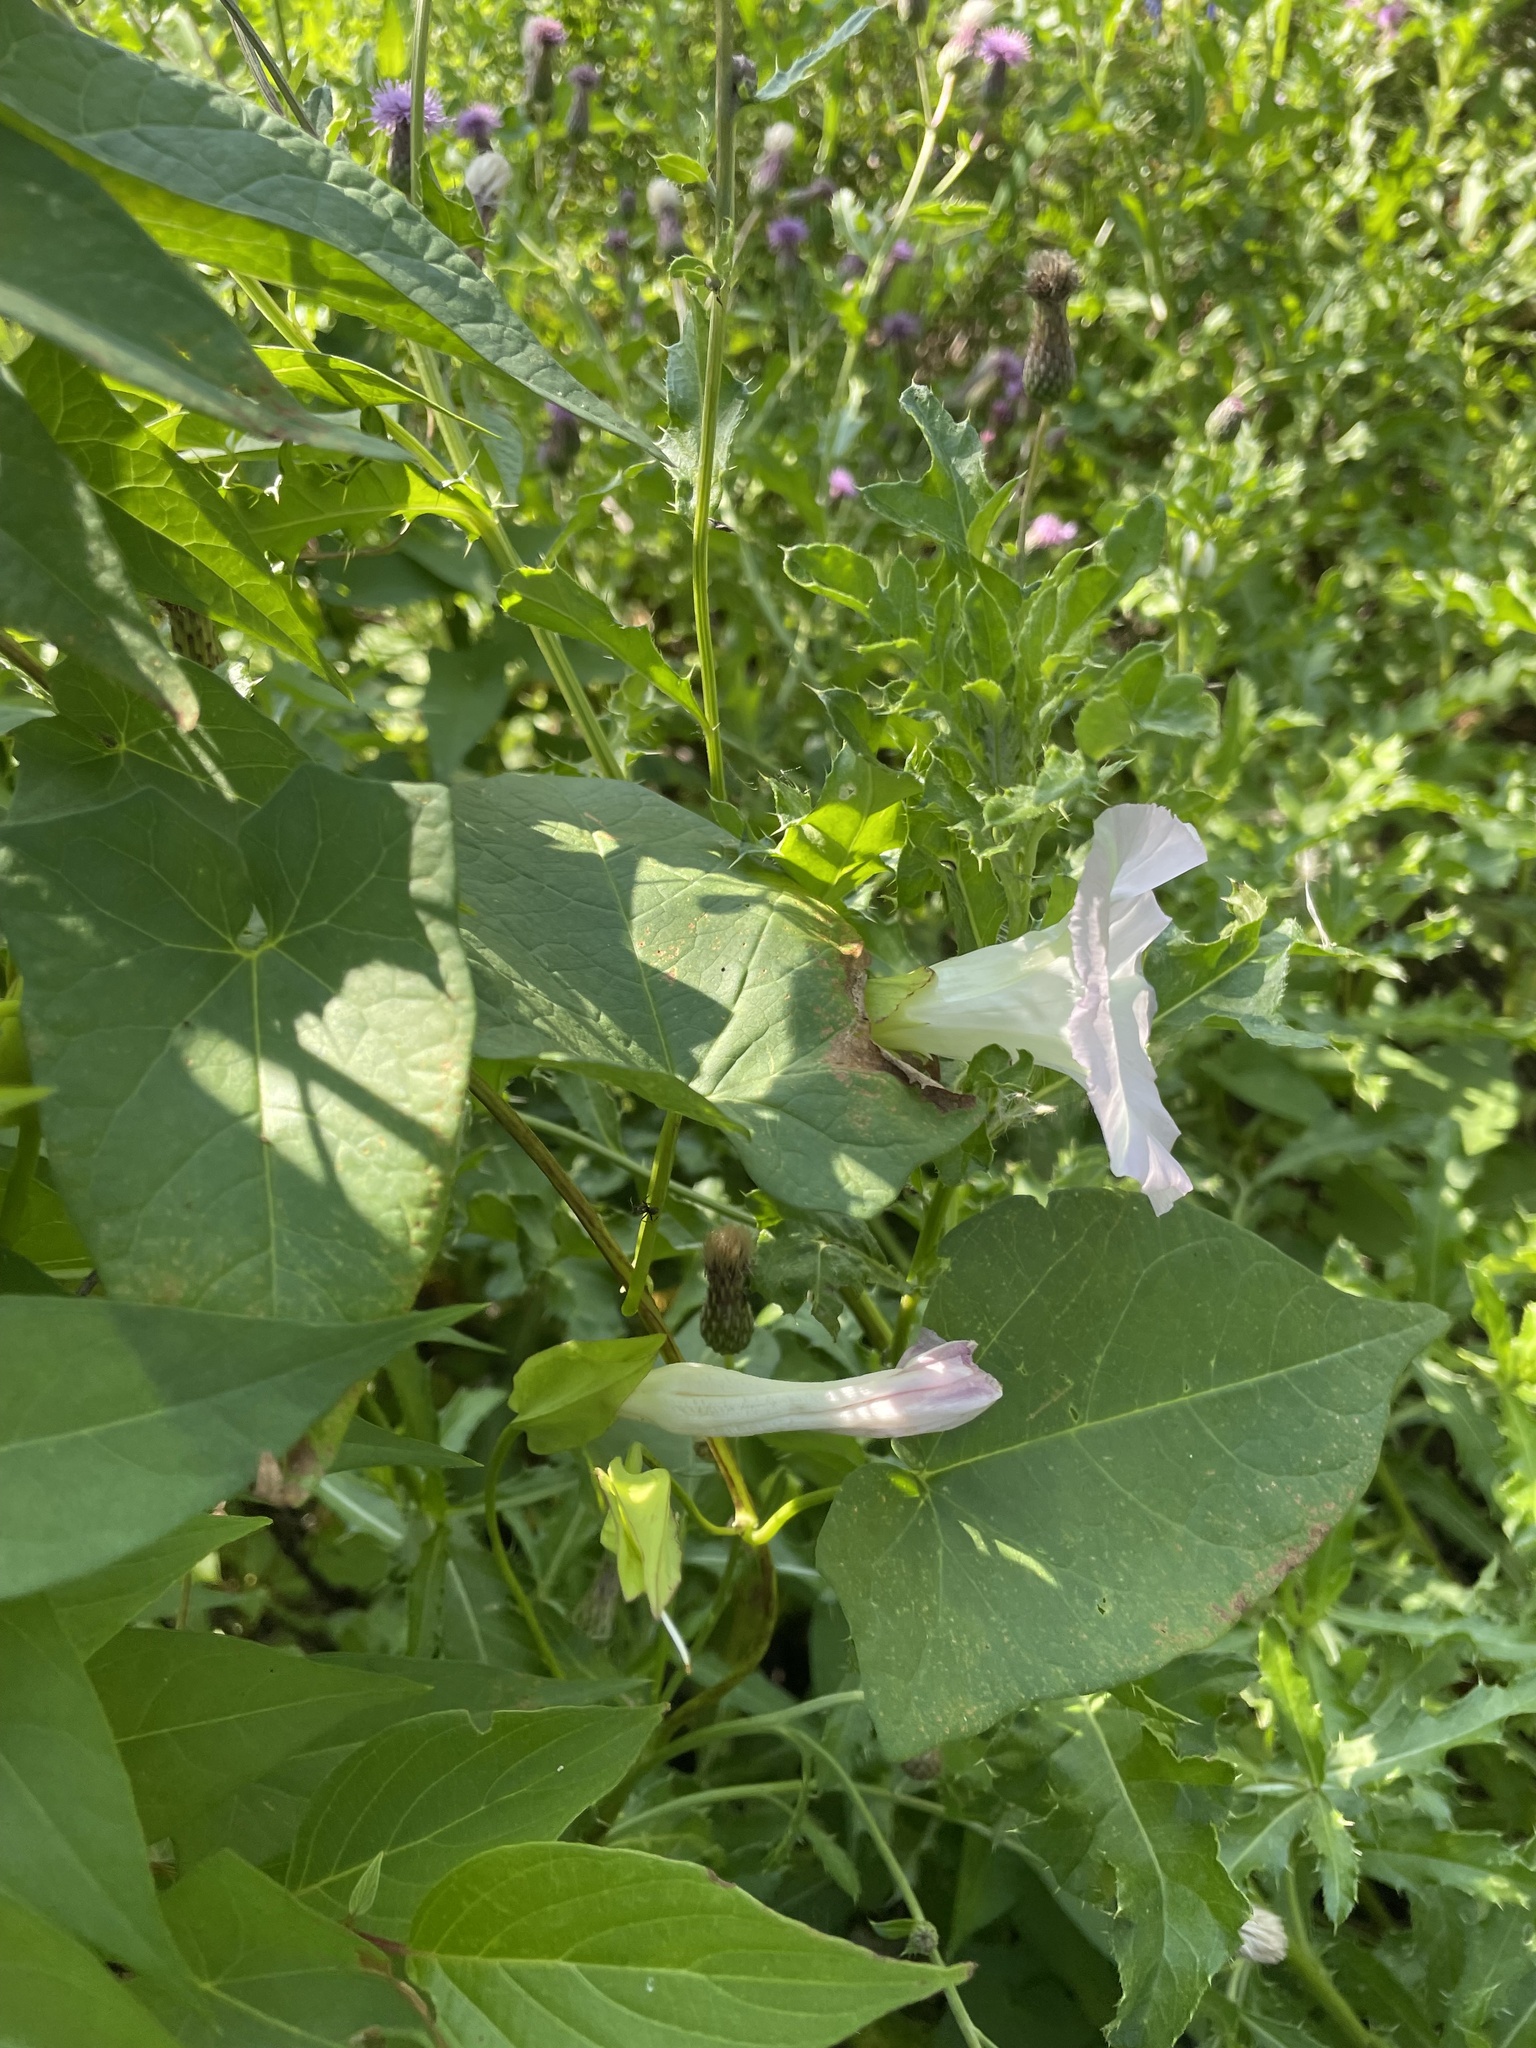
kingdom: Plantae
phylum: Tracheophyta
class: Magnoliopsida
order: Solanales
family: Convolvulaceae
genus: Calystegia
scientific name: Calystegia sepium
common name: Hedge bindweed
